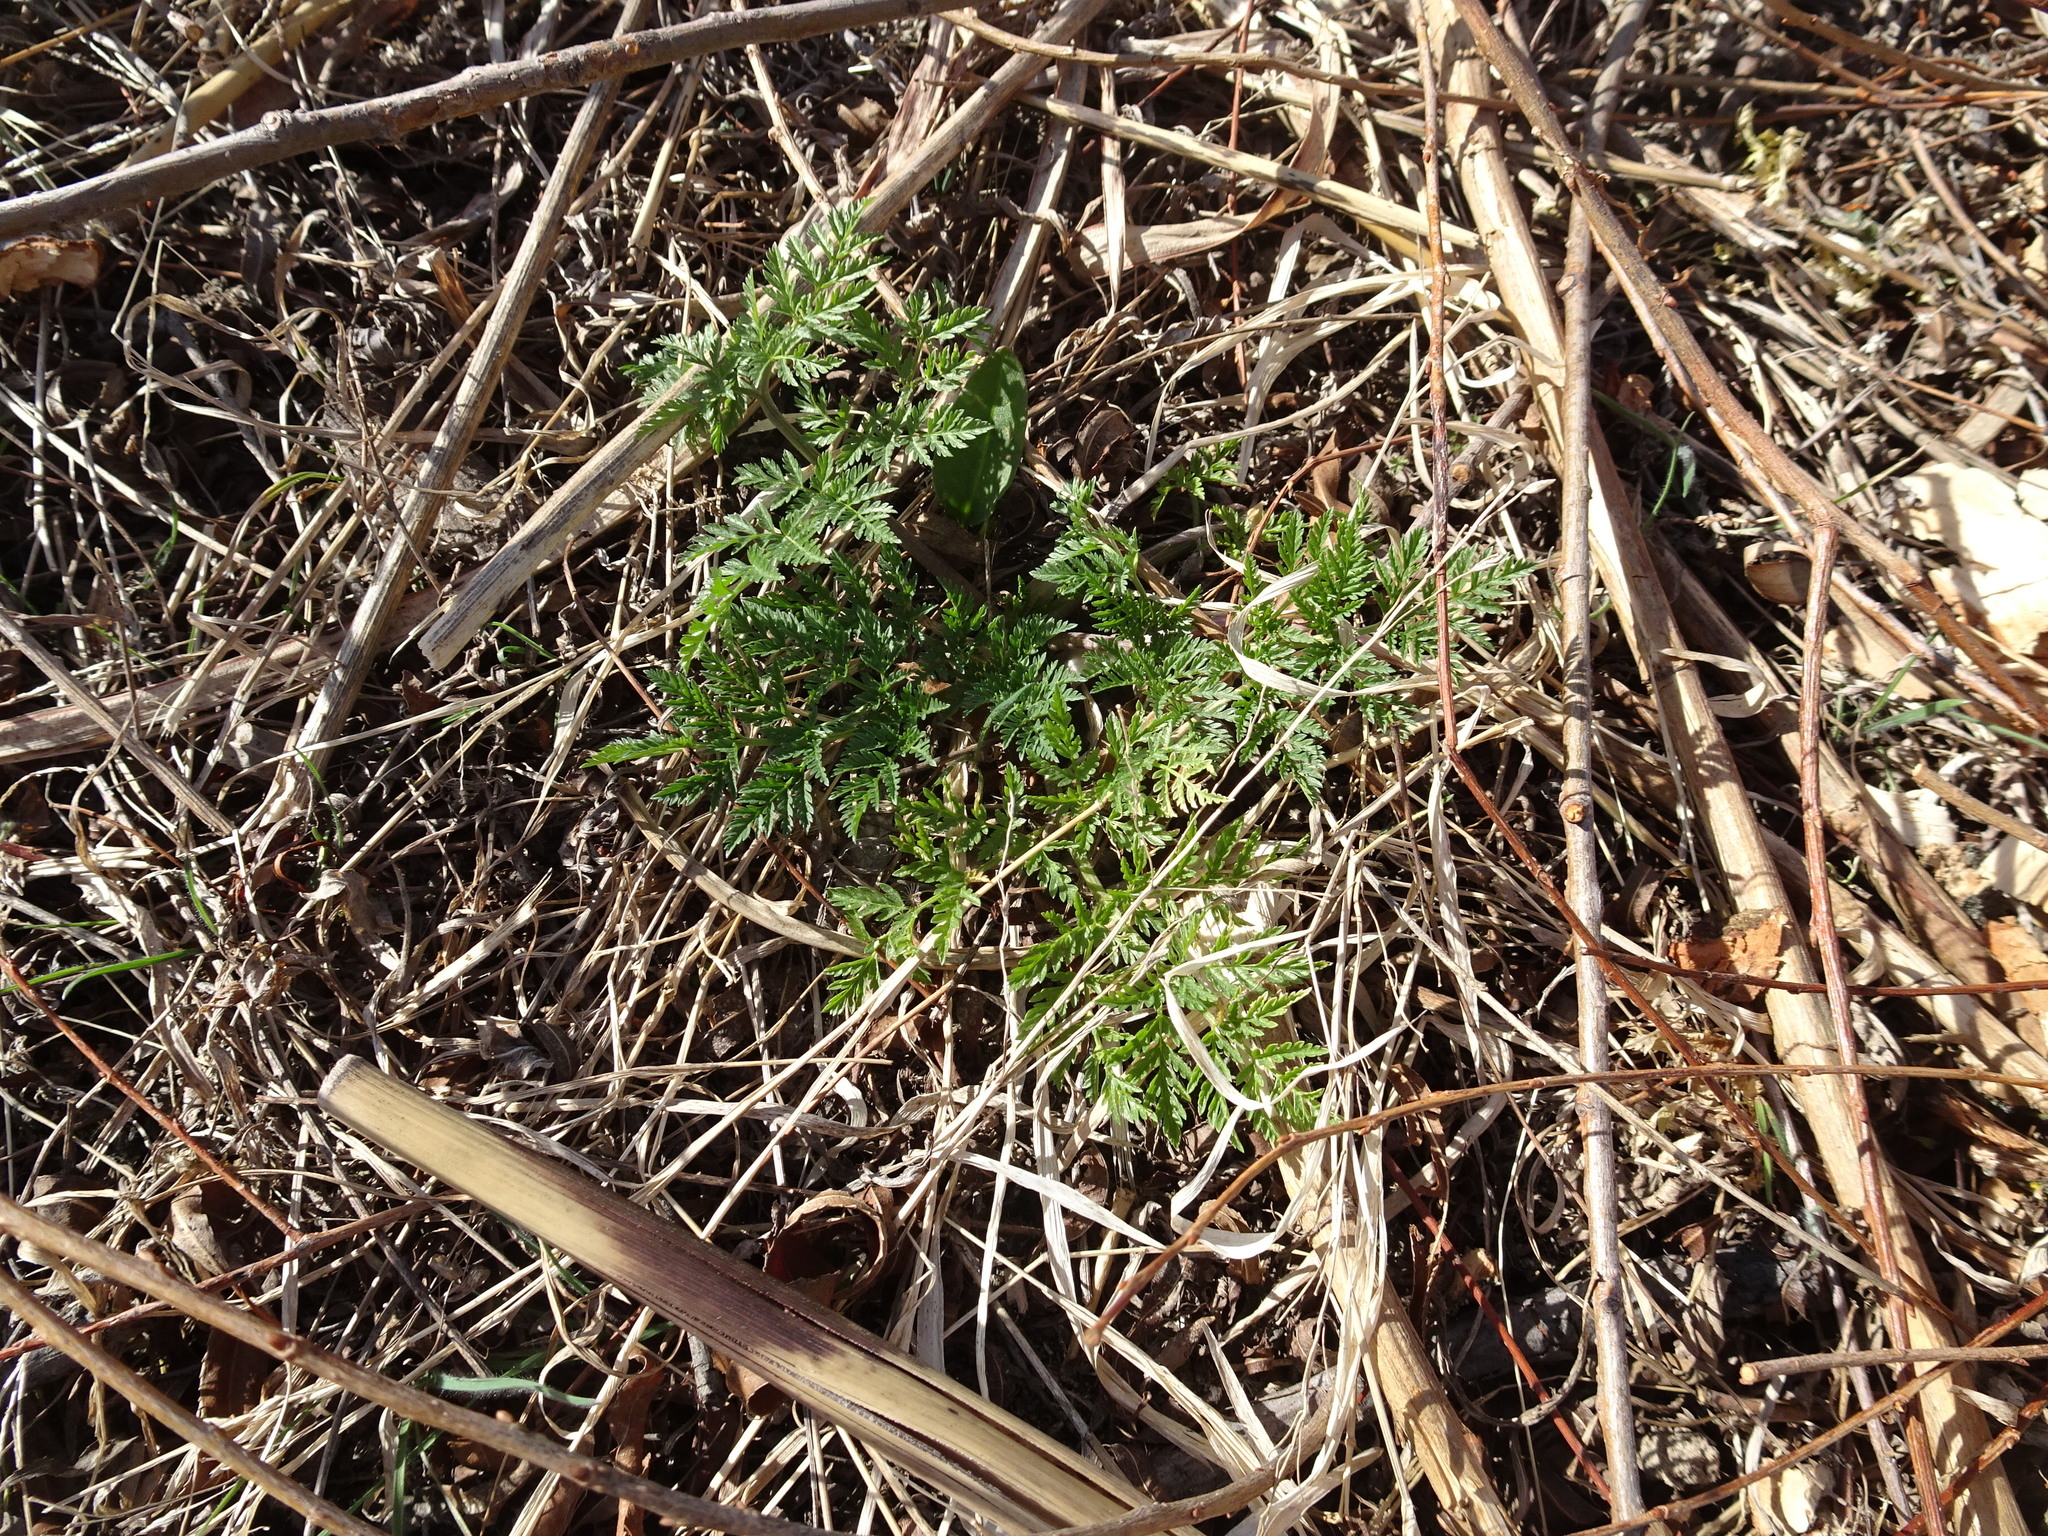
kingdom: Plantae
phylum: Tracheophyta
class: Magnoliopsida
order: Apiales
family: Apiaceae
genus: Conium
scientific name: Conium maculatum
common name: Hemlock
